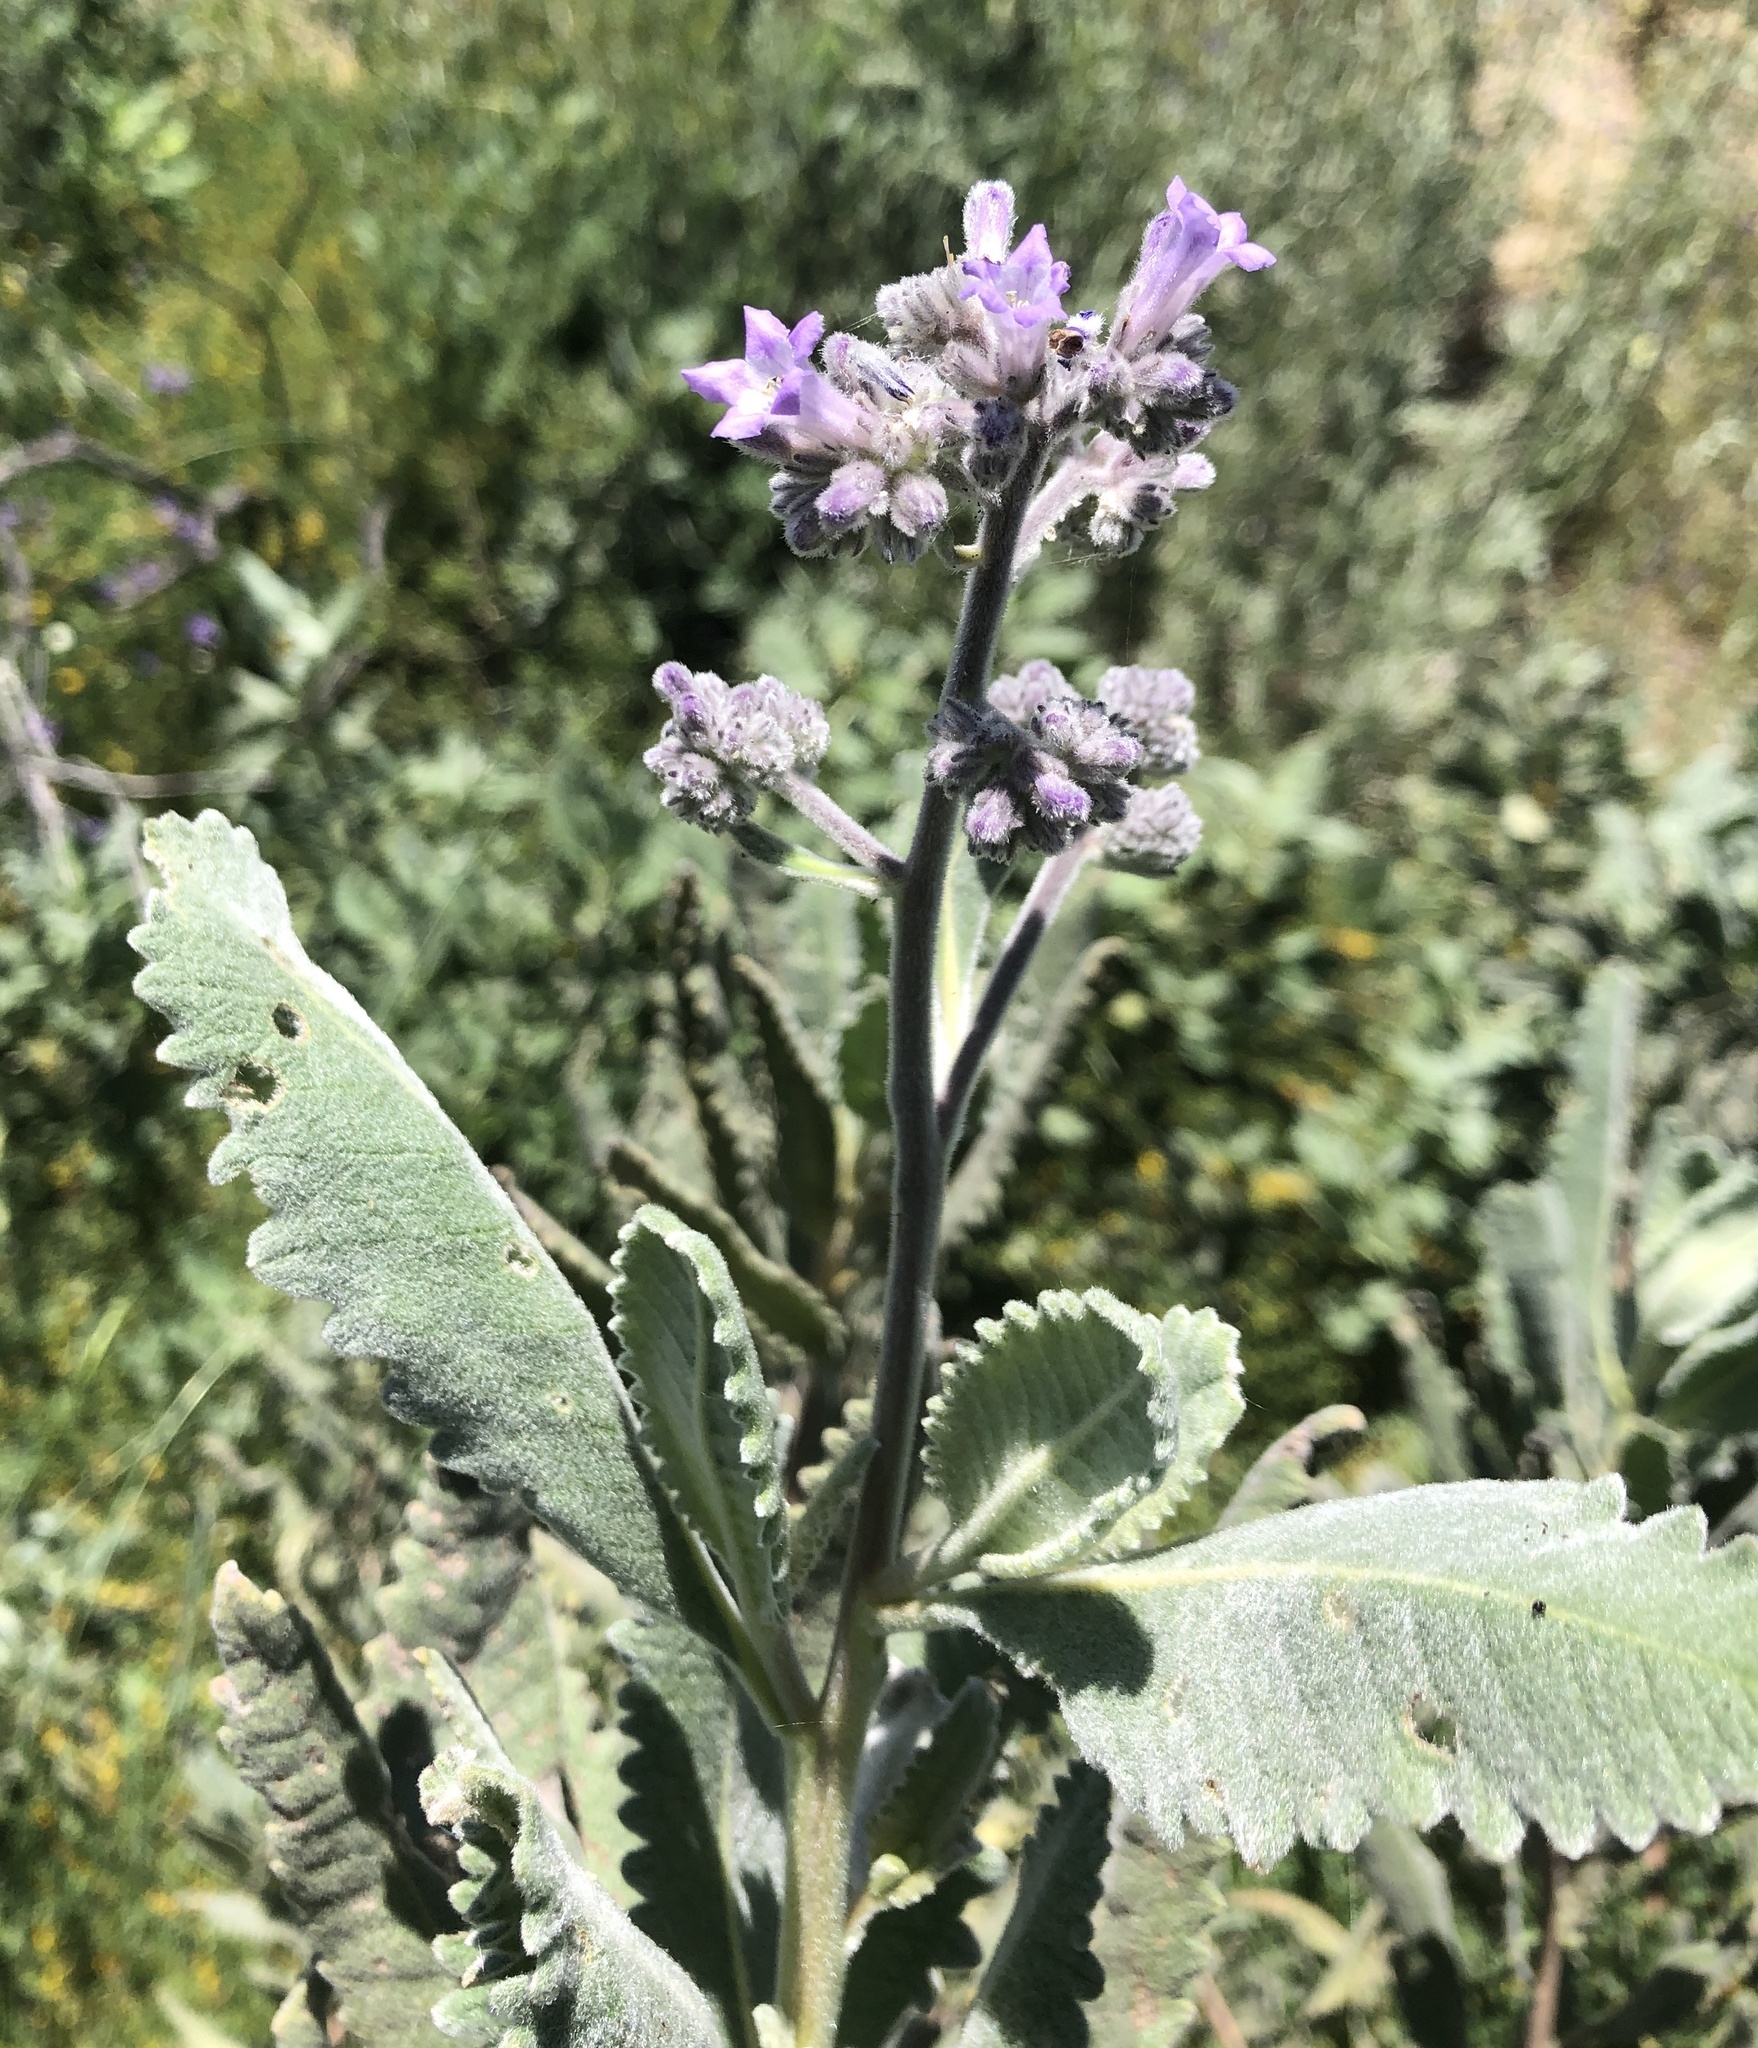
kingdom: Plantae
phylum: Tracheophyta
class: Magnoliopsida
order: Boraginales
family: Namaceae
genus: Eriodictyon
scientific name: Eriodictyon crassifolium
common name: Thick-leaf yerba-santa
